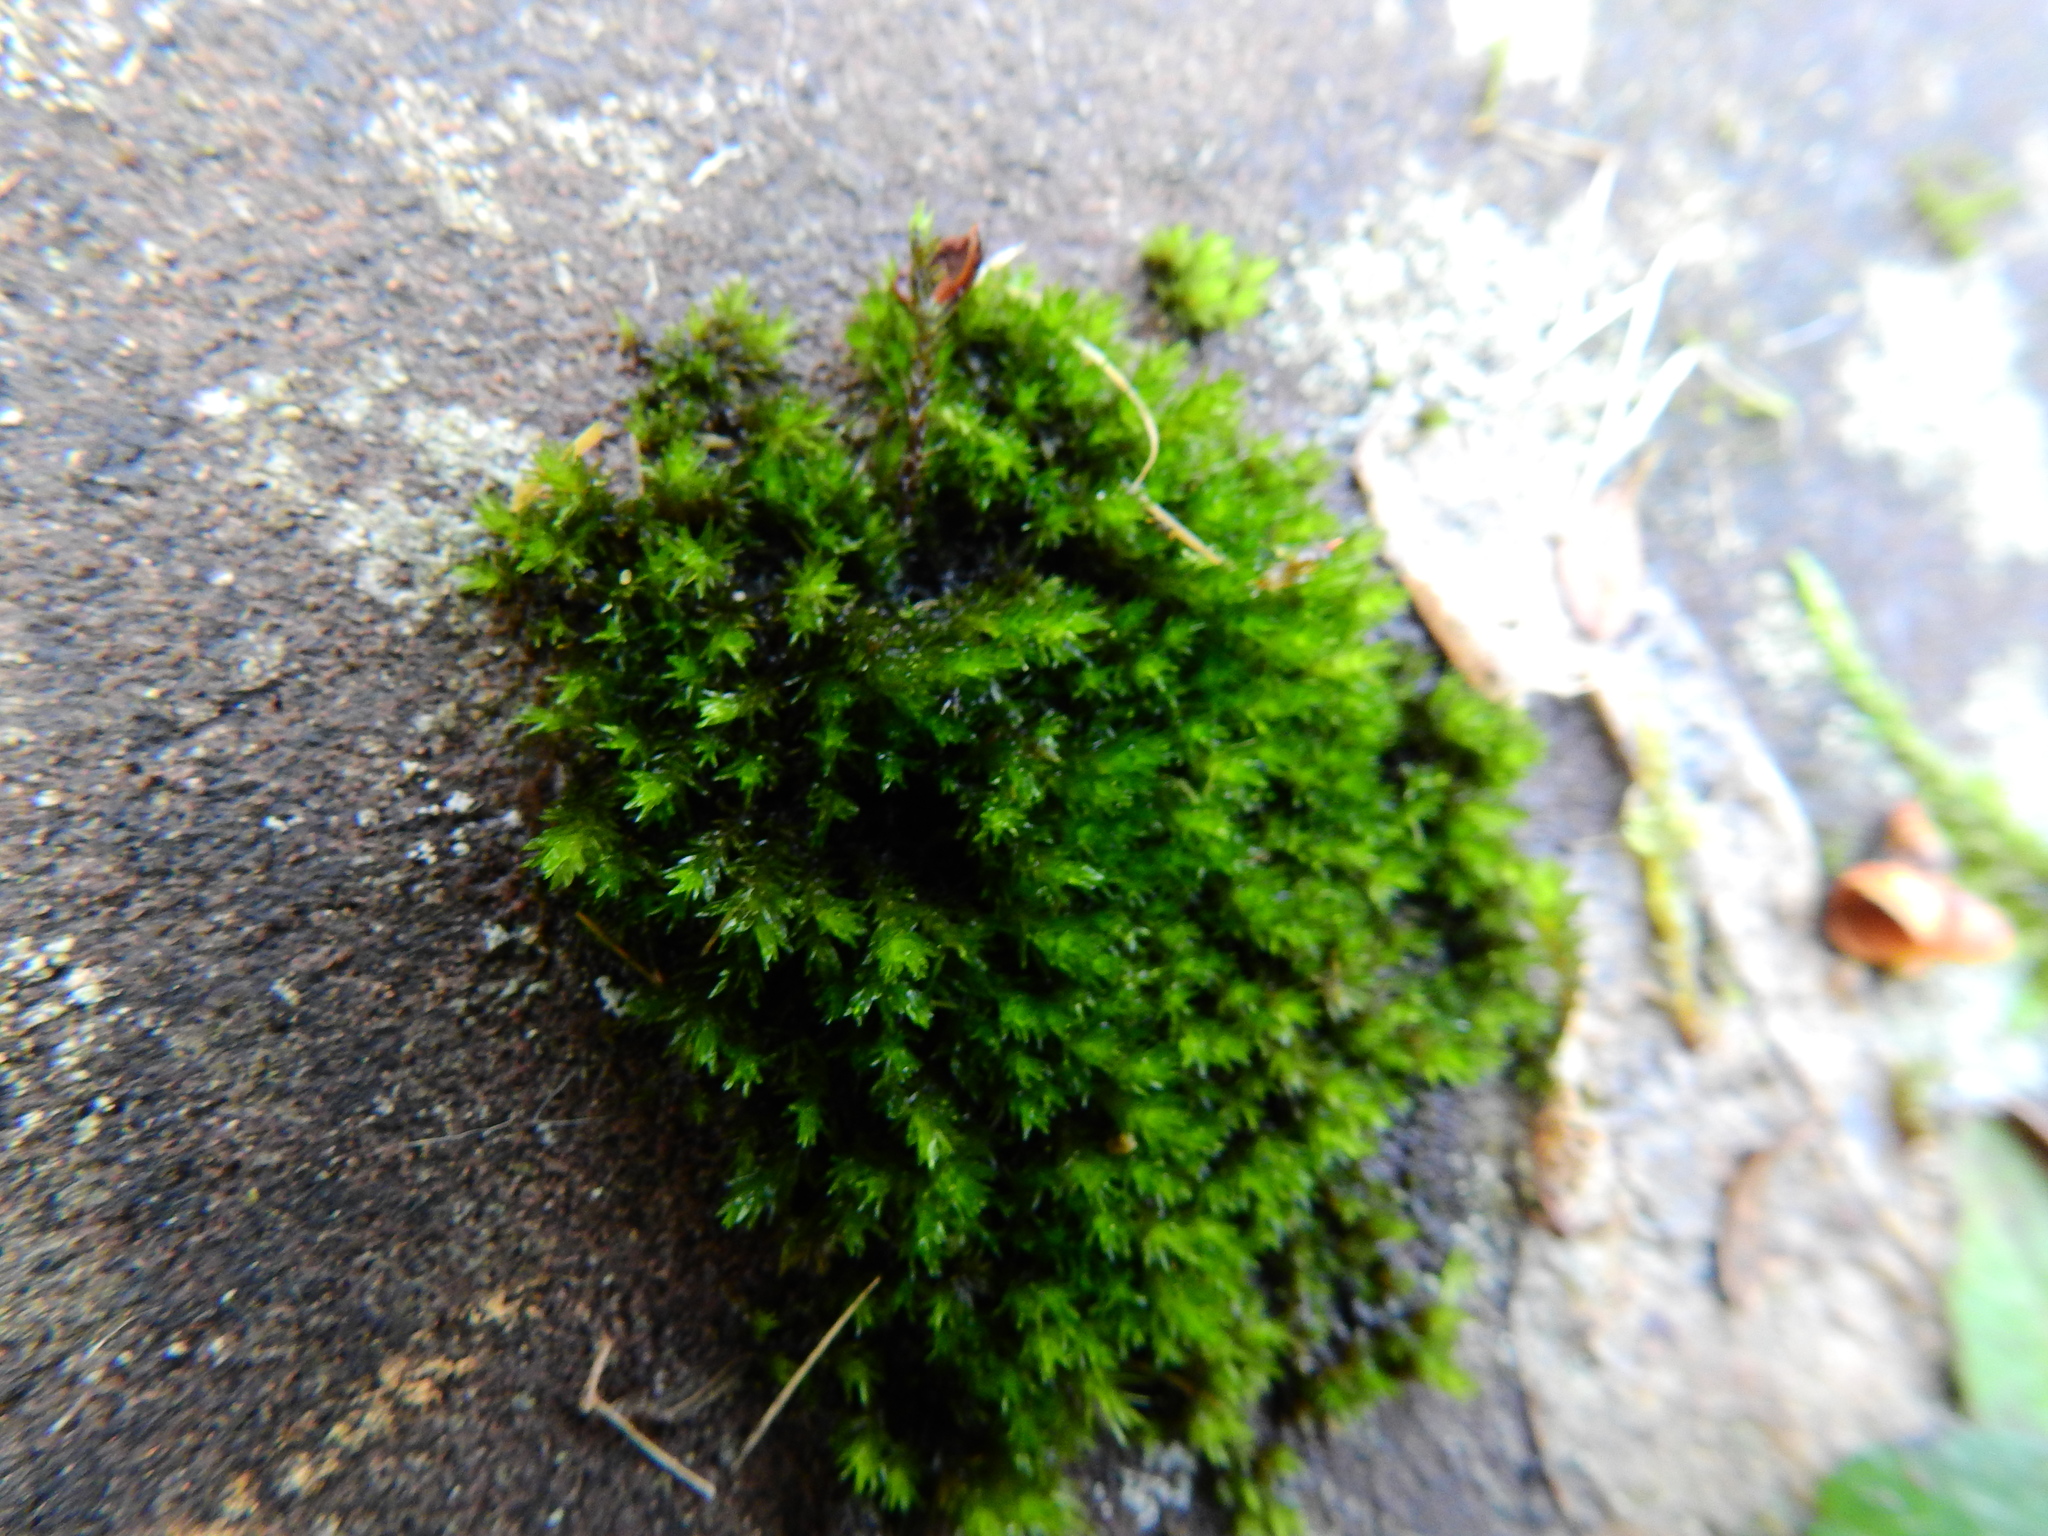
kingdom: Plantae
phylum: Bryophyta
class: Bryopsida
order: Grimmiales
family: Grimmiaceae
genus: Codriophorus
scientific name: Codriophorus acicularis
